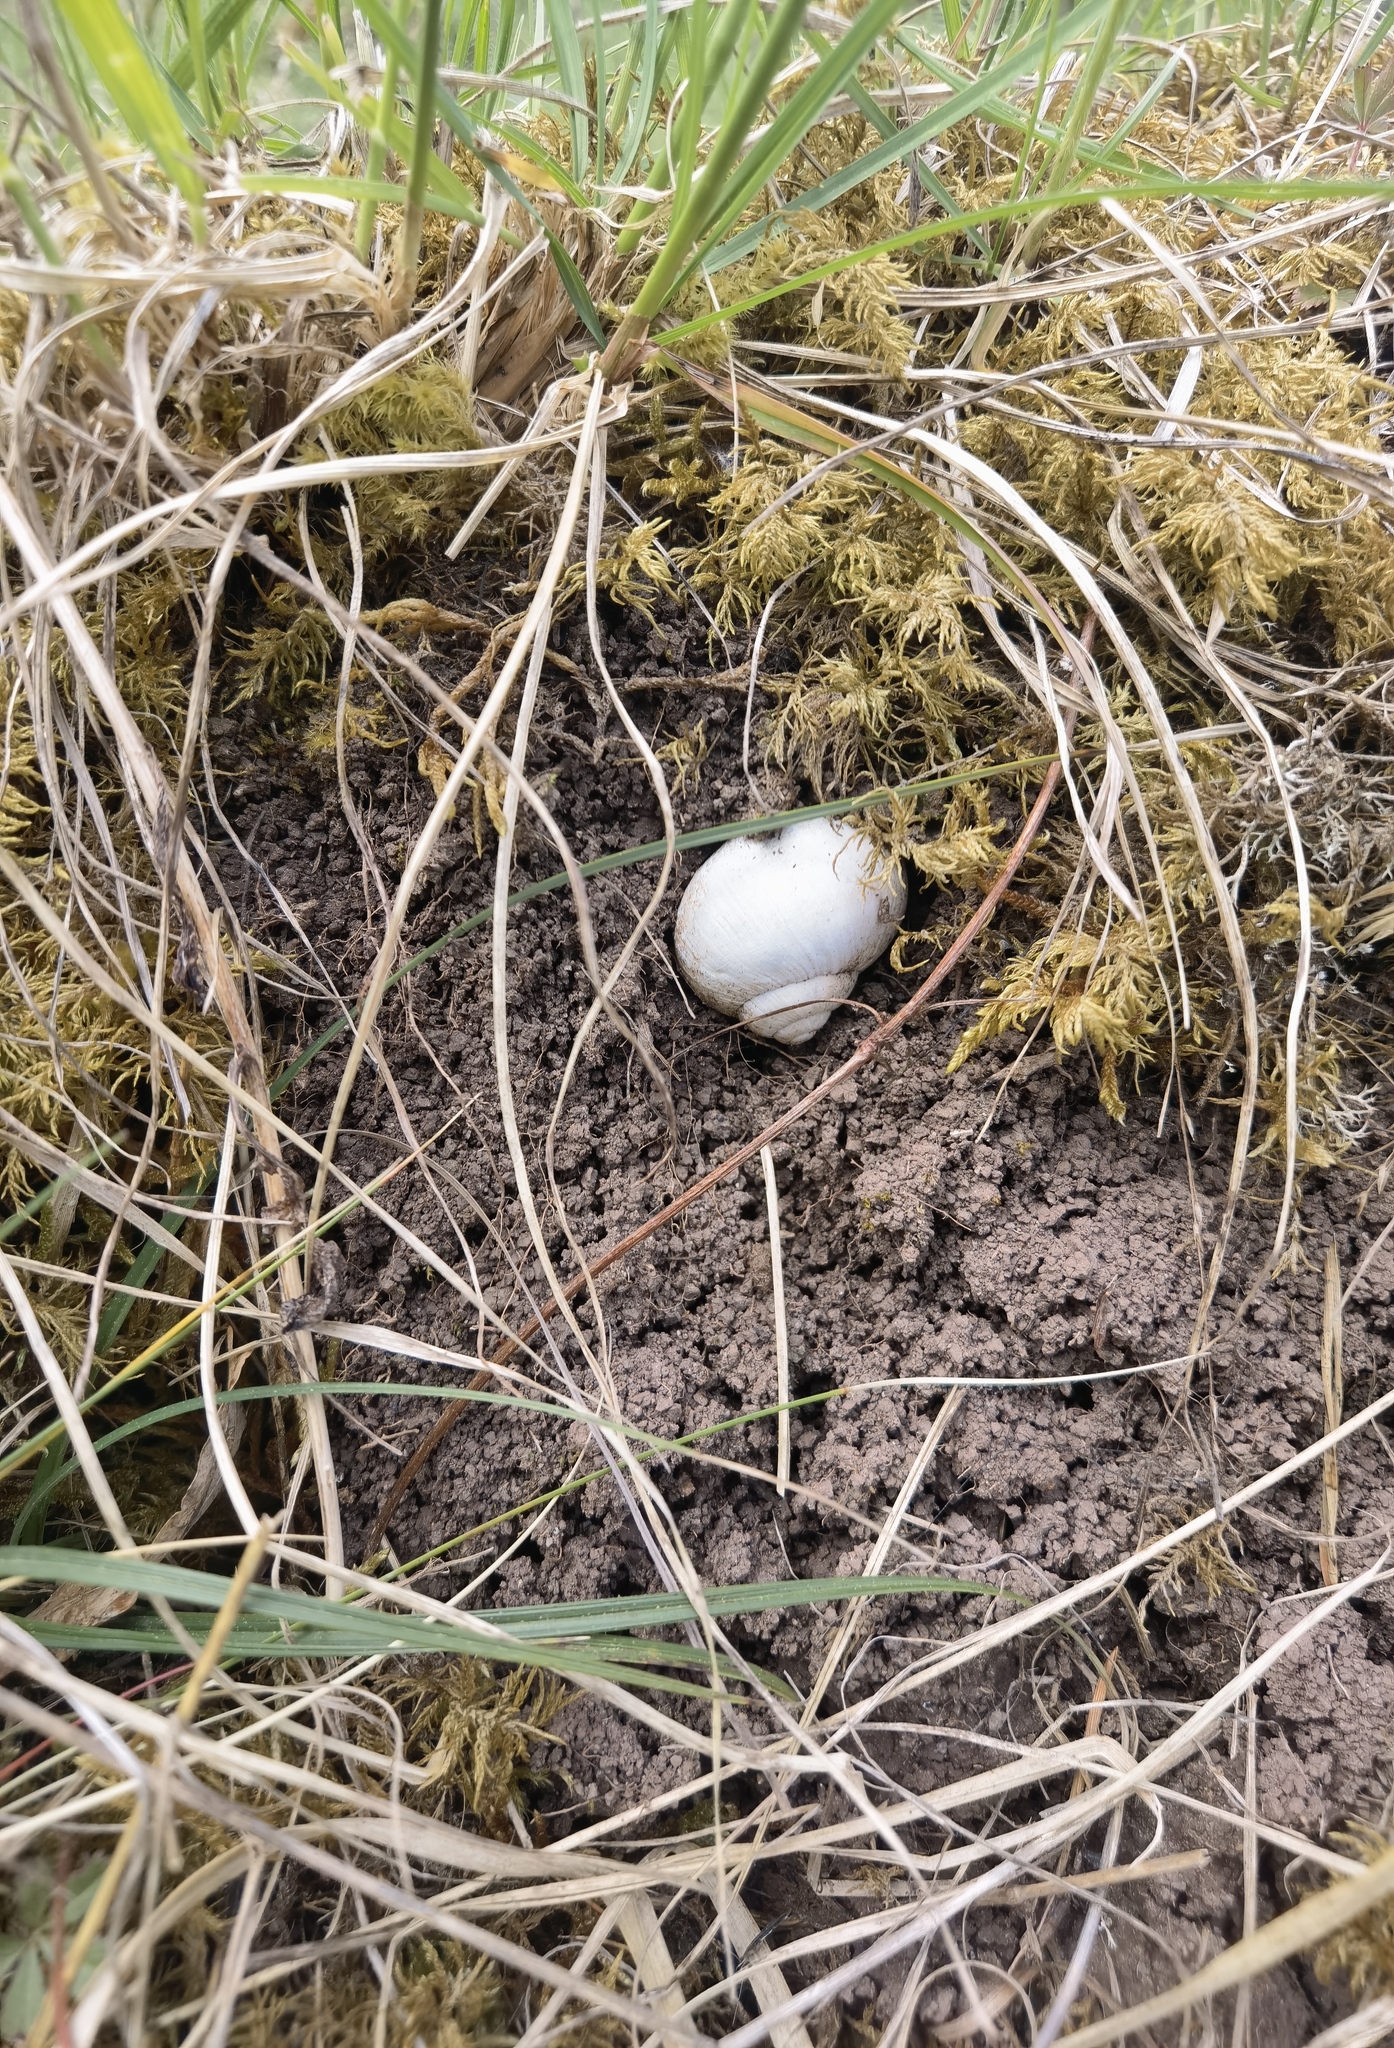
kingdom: Animalia
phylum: Mollusca
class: Gastropoda
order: Stylommatophora
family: Helicidae
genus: Helix
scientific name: Helix pomatia
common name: Roman snail
